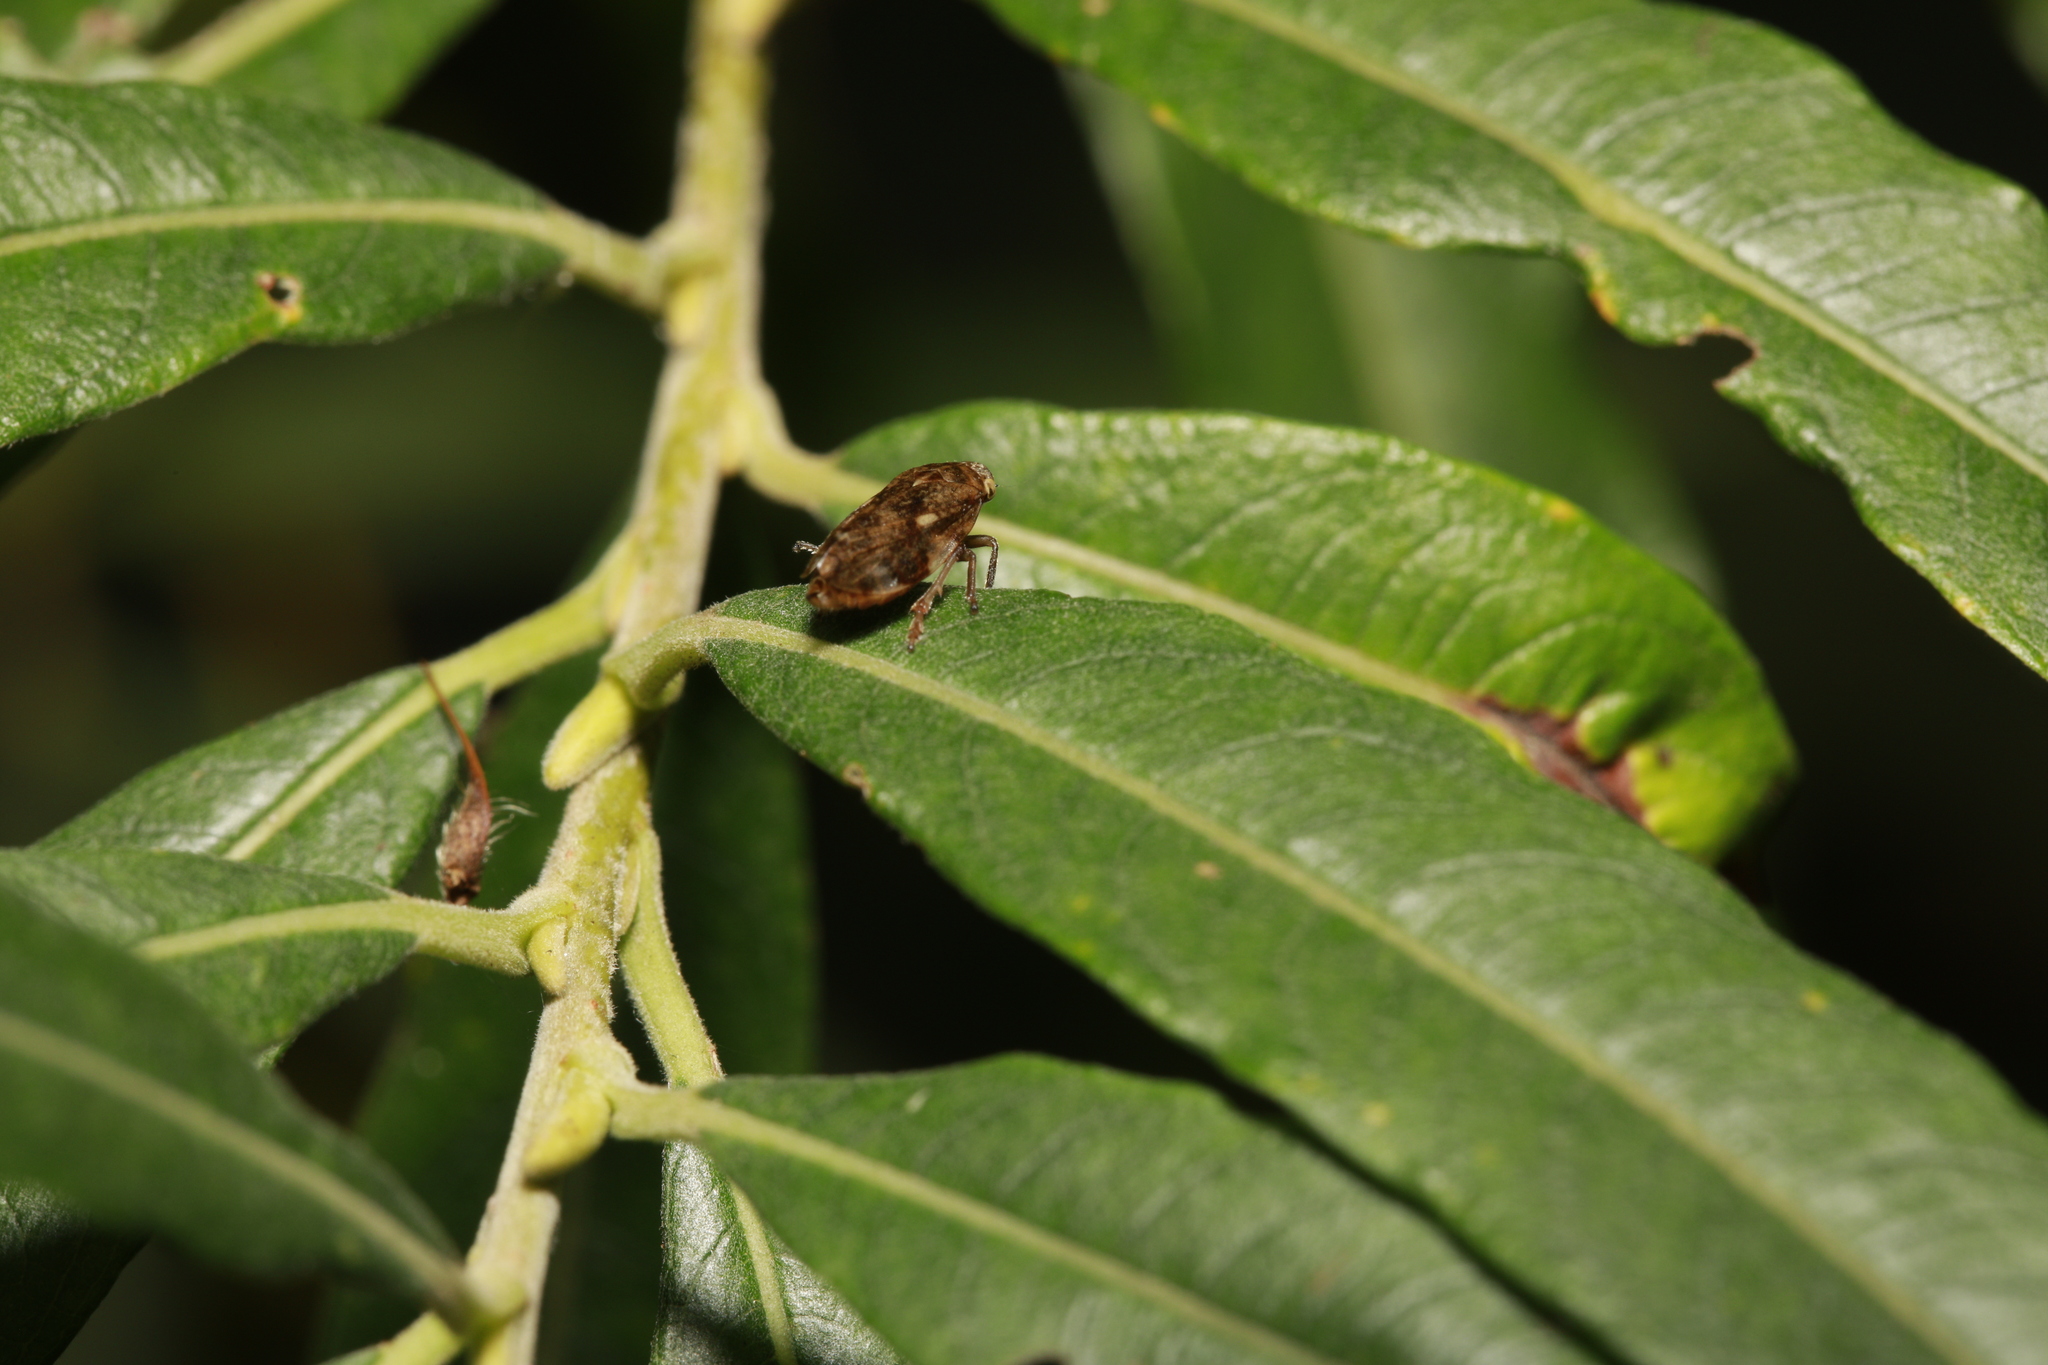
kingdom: Animalia
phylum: Arthropoda
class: Insecta
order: Hemiptera
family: Aphrophoridae
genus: Philaenus
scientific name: Philaenus spumarius
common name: Meadow spittlebug
